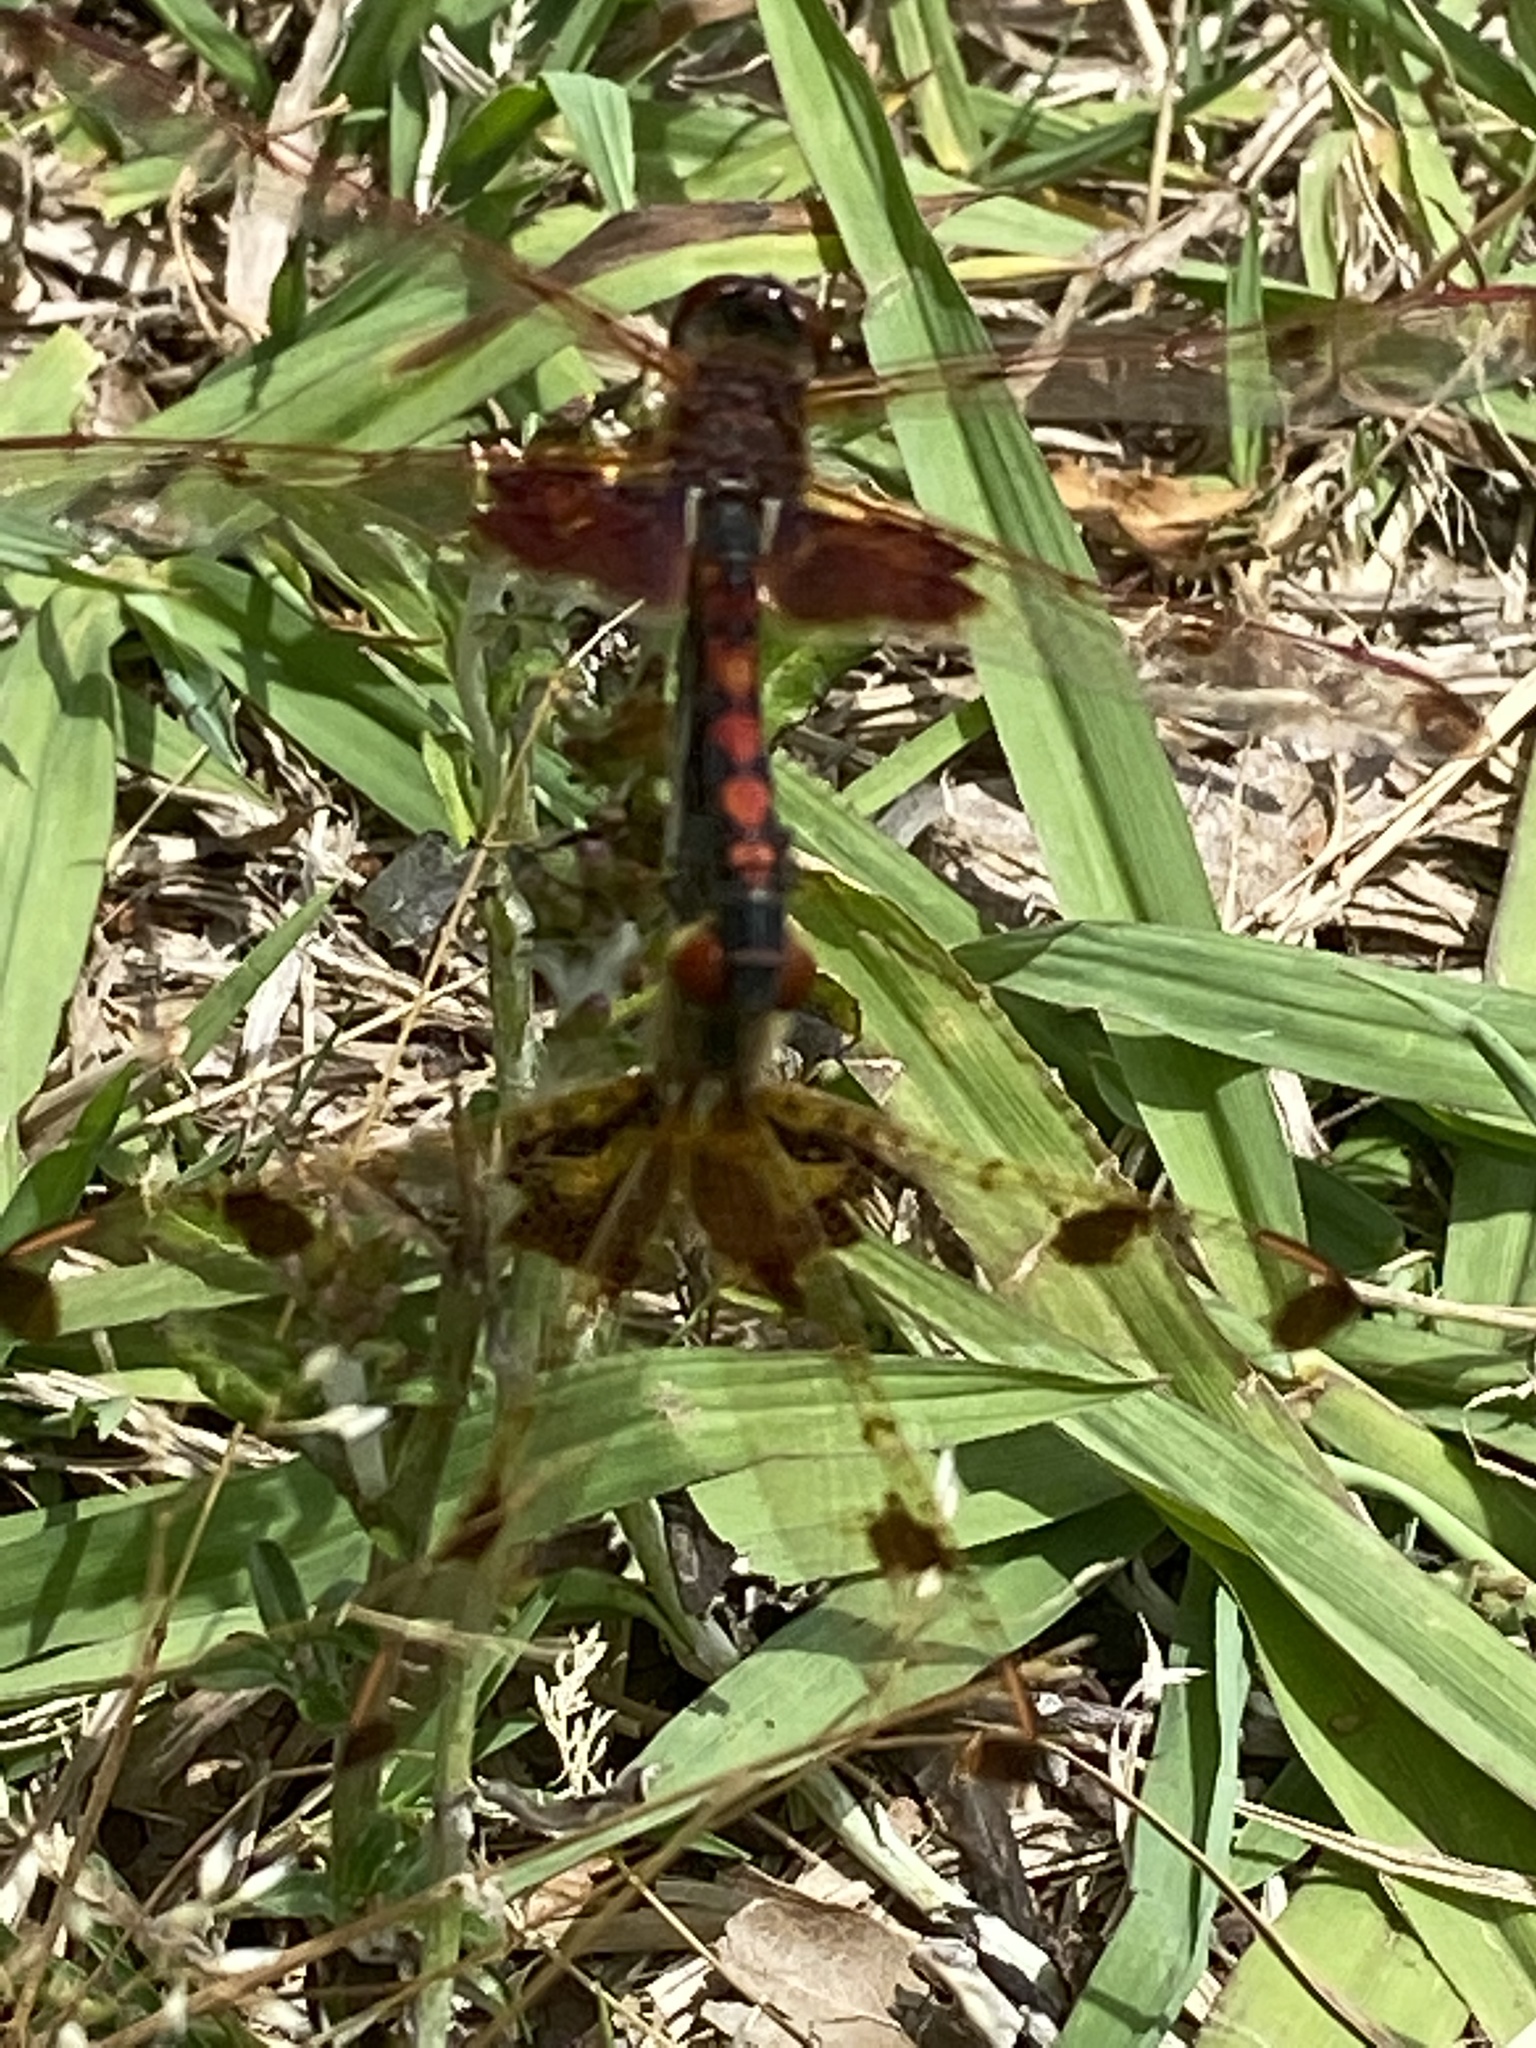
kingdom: Animalia
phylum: Arthropoda
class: Insecta
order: Odonata
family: Libellulidae
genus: Celithemis
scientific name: Celithemis elisa
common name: Calico pennant
